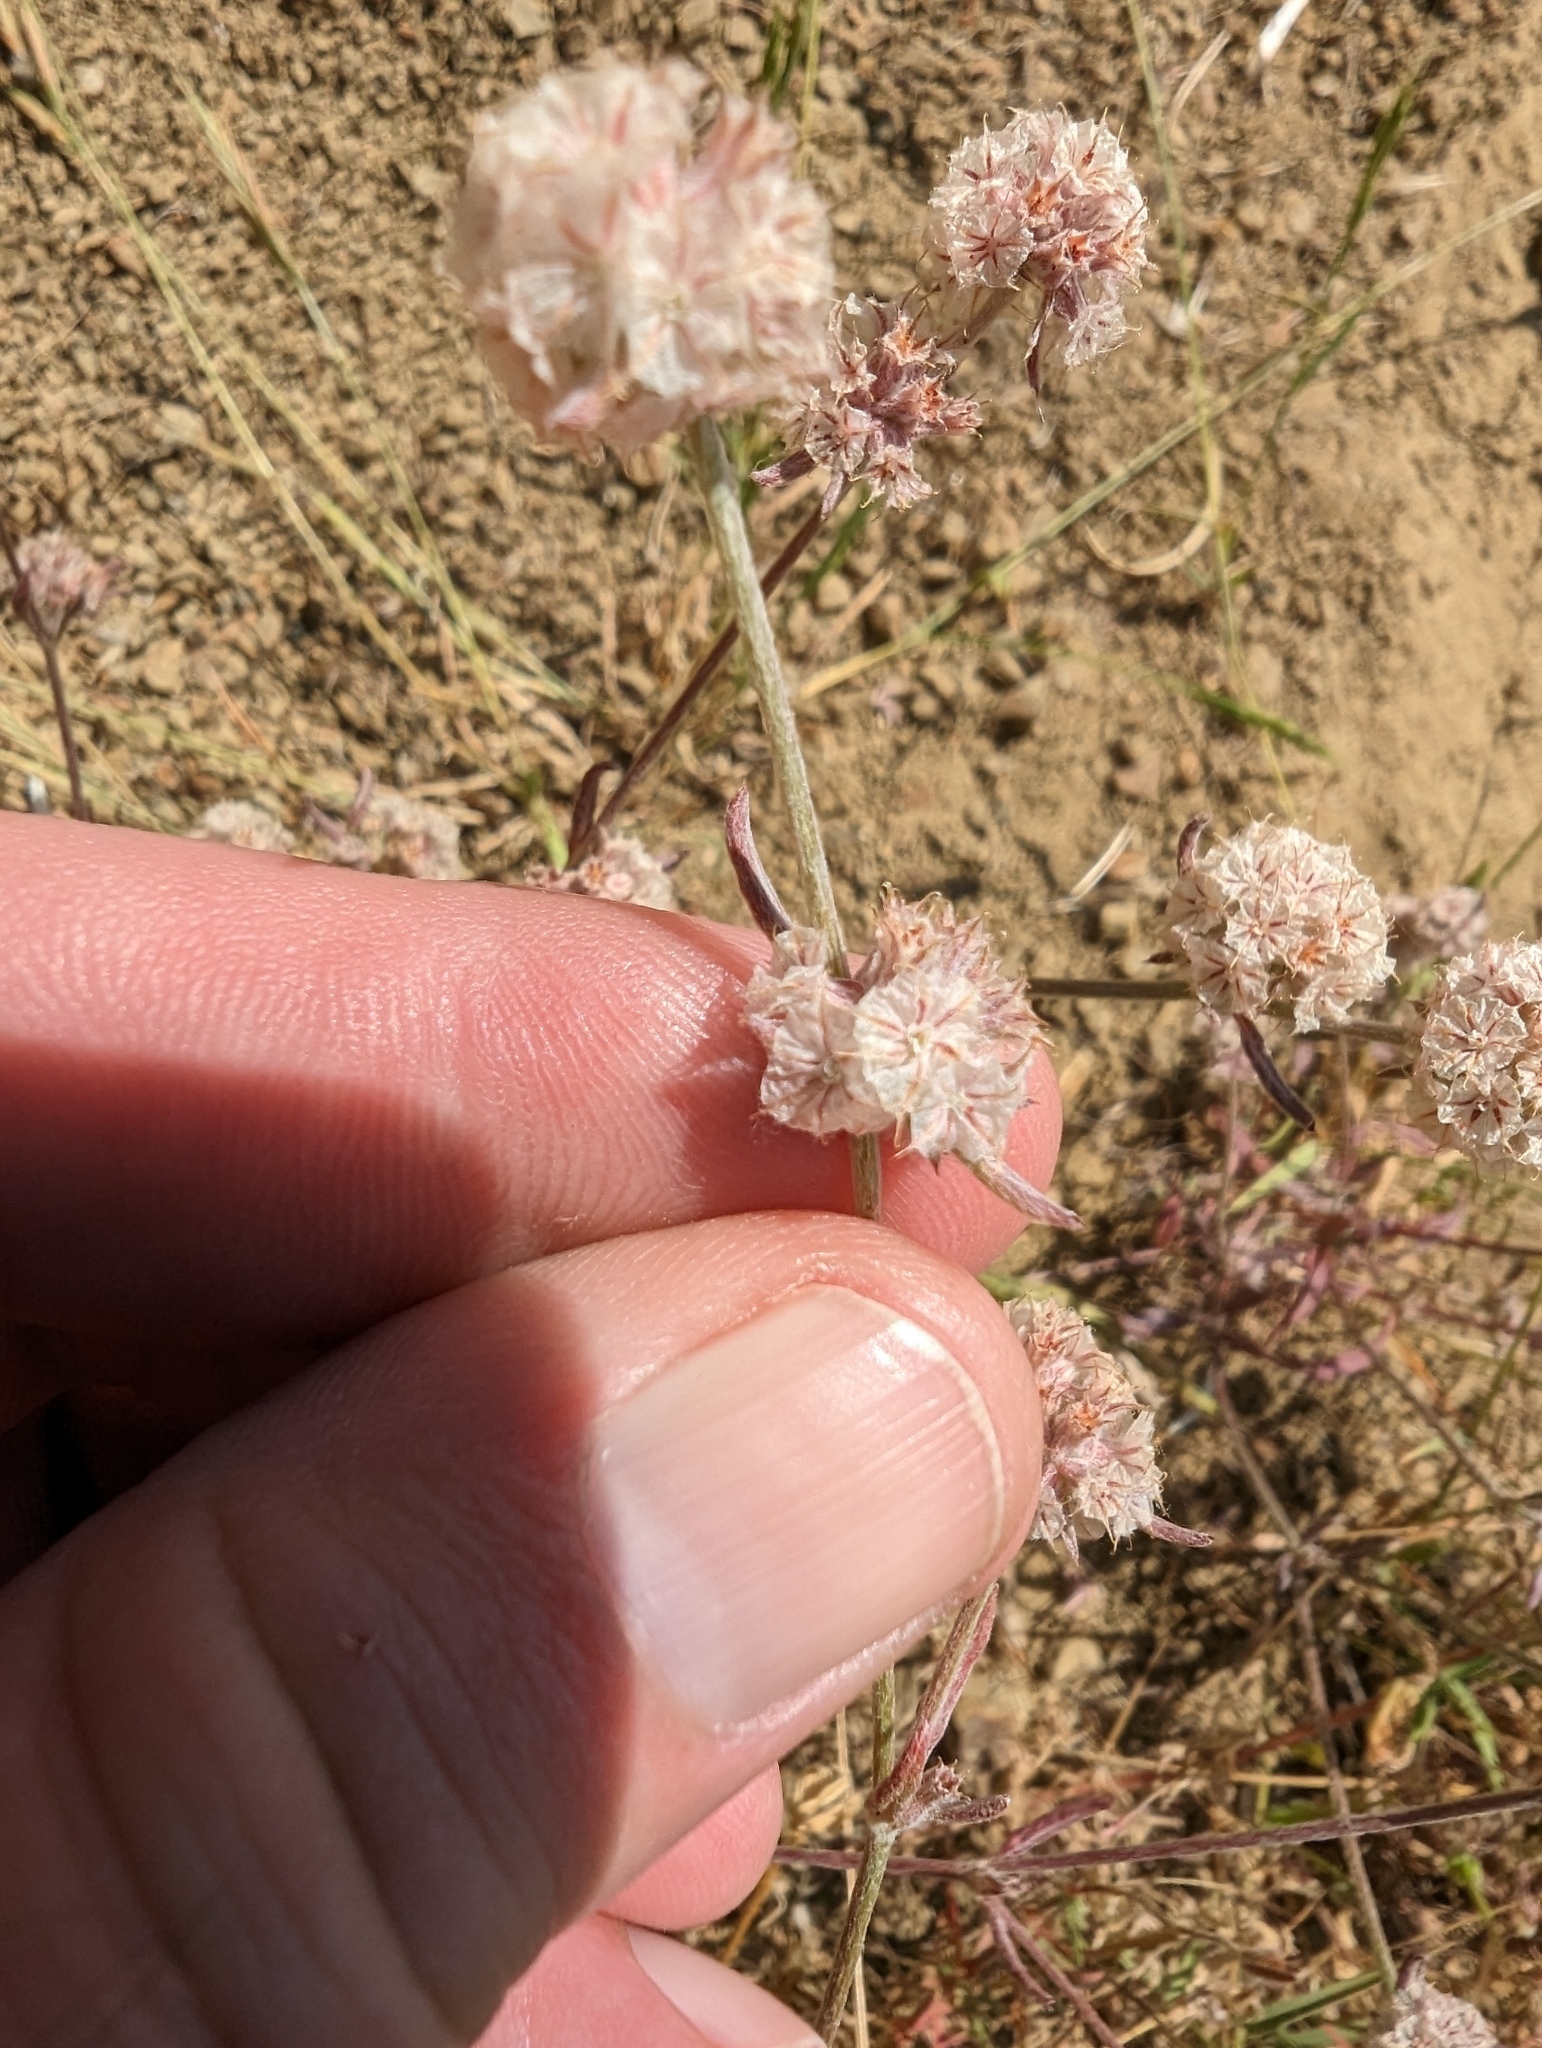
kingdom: Plantae
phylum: Tracheophyta
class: Magnoliopsida
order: Caryophyllales
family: Polygonaceae
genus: Chorizanthe
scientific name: Chorizanthe membranacea
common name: Pink spineflower
